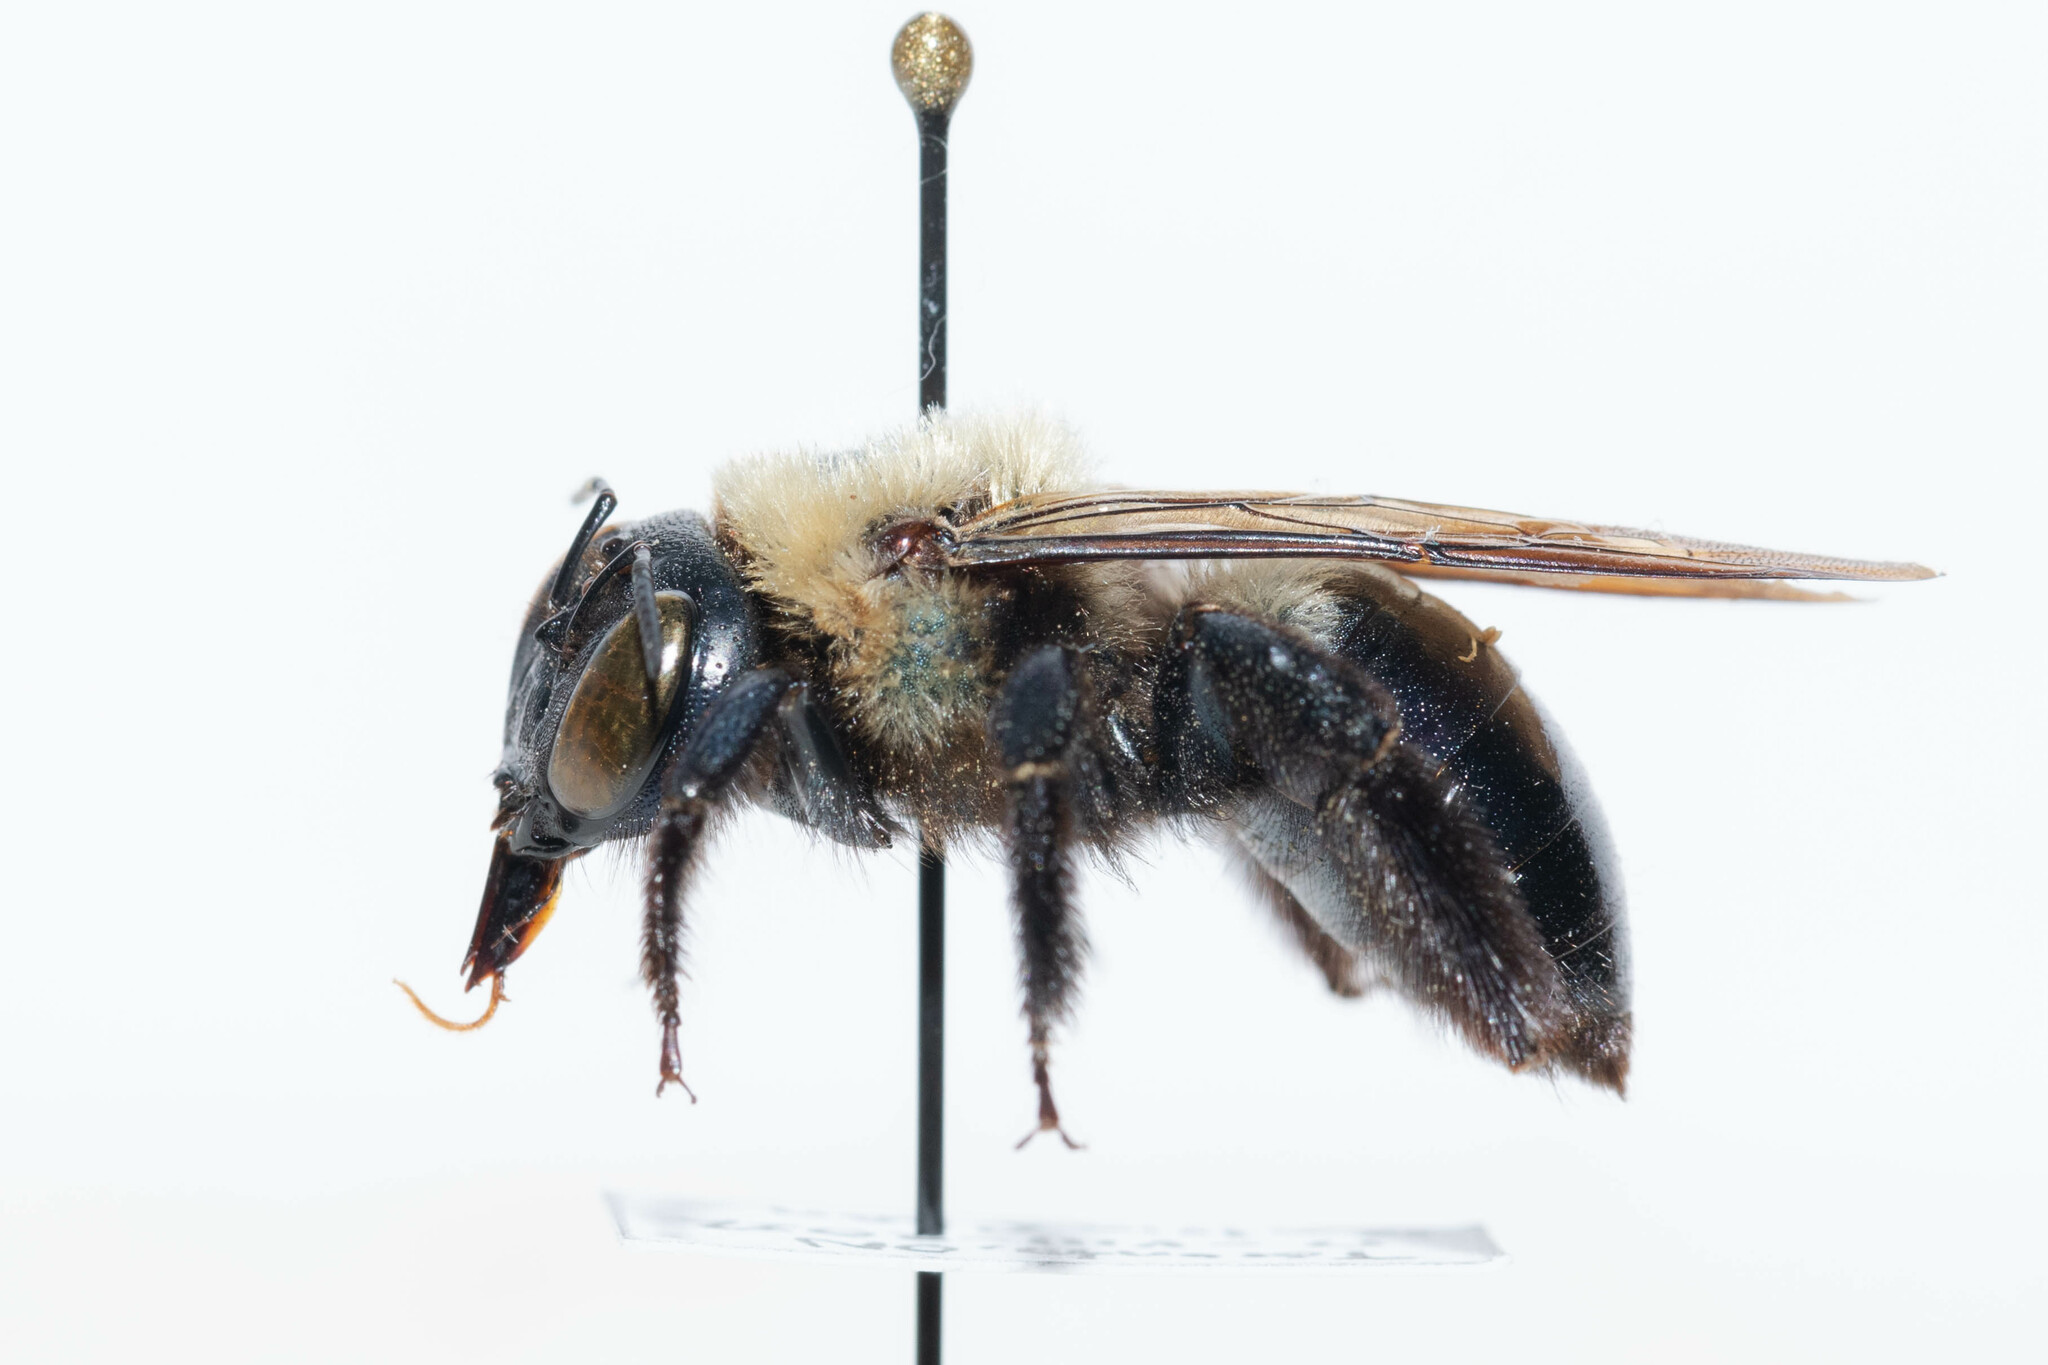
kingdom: Animalia
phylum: Arthropoda
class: Insecta
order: Hymenoptera
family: Apidae
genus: Xylocopa
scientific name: Xylocopa virginica
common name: Carpenter bee
